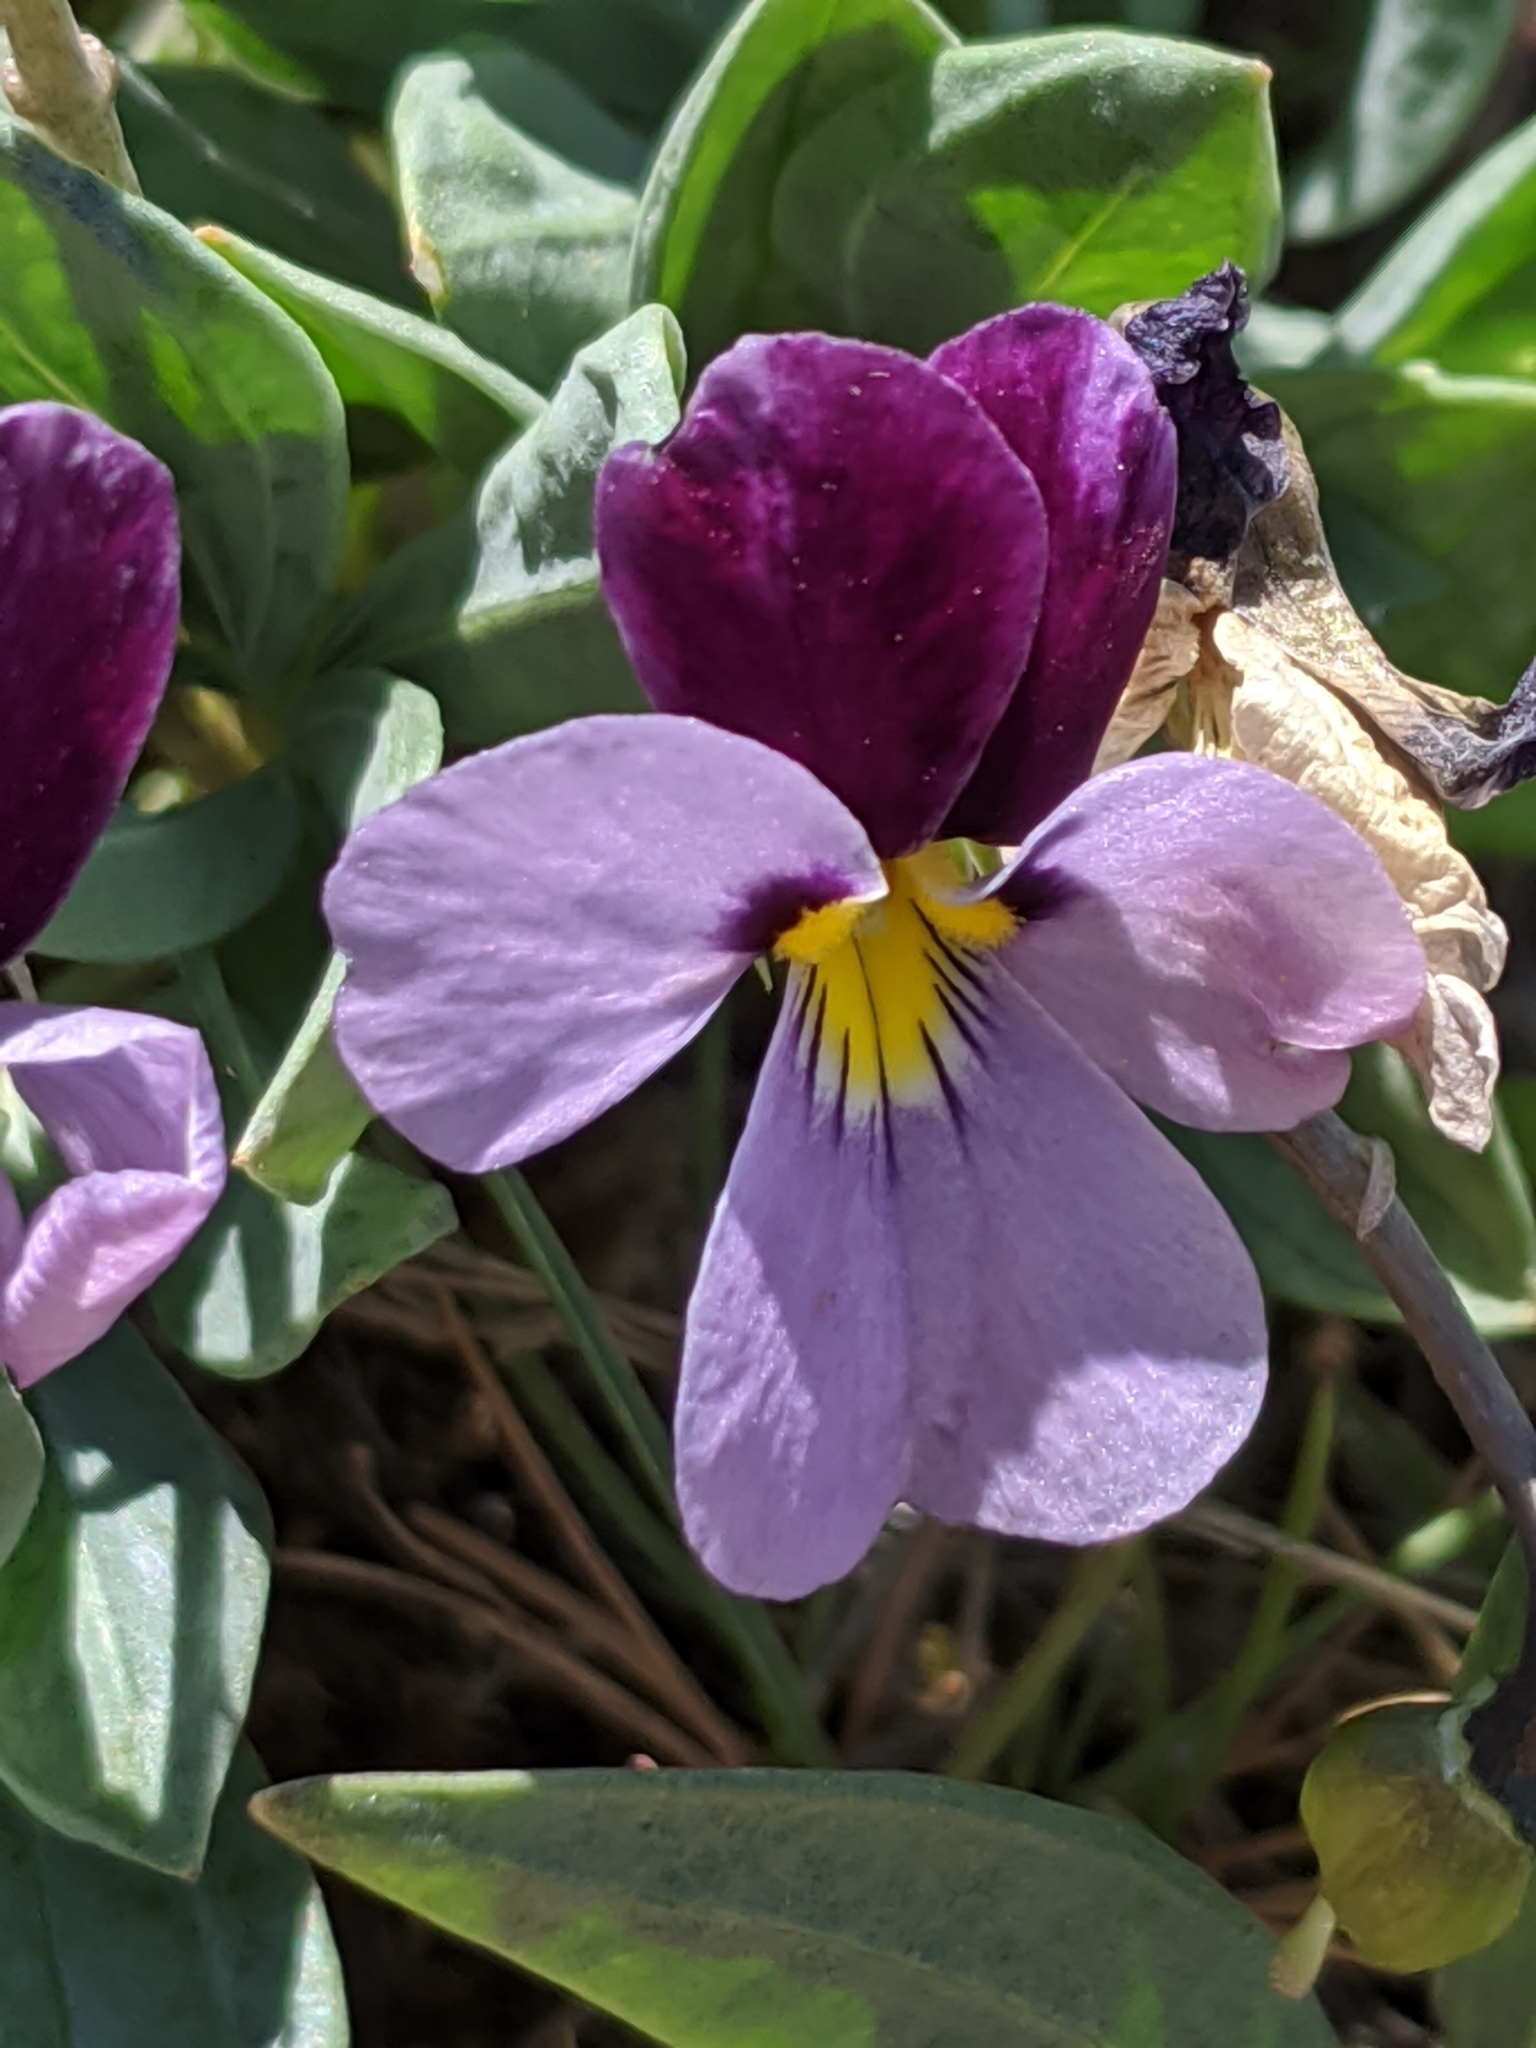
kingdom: Plantae
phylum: Tracheophyta
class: Magnoliopsida
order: Malpighiales
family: Violaceae
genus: Viola
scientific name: Viola trinervata
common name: Sagebrush violet
